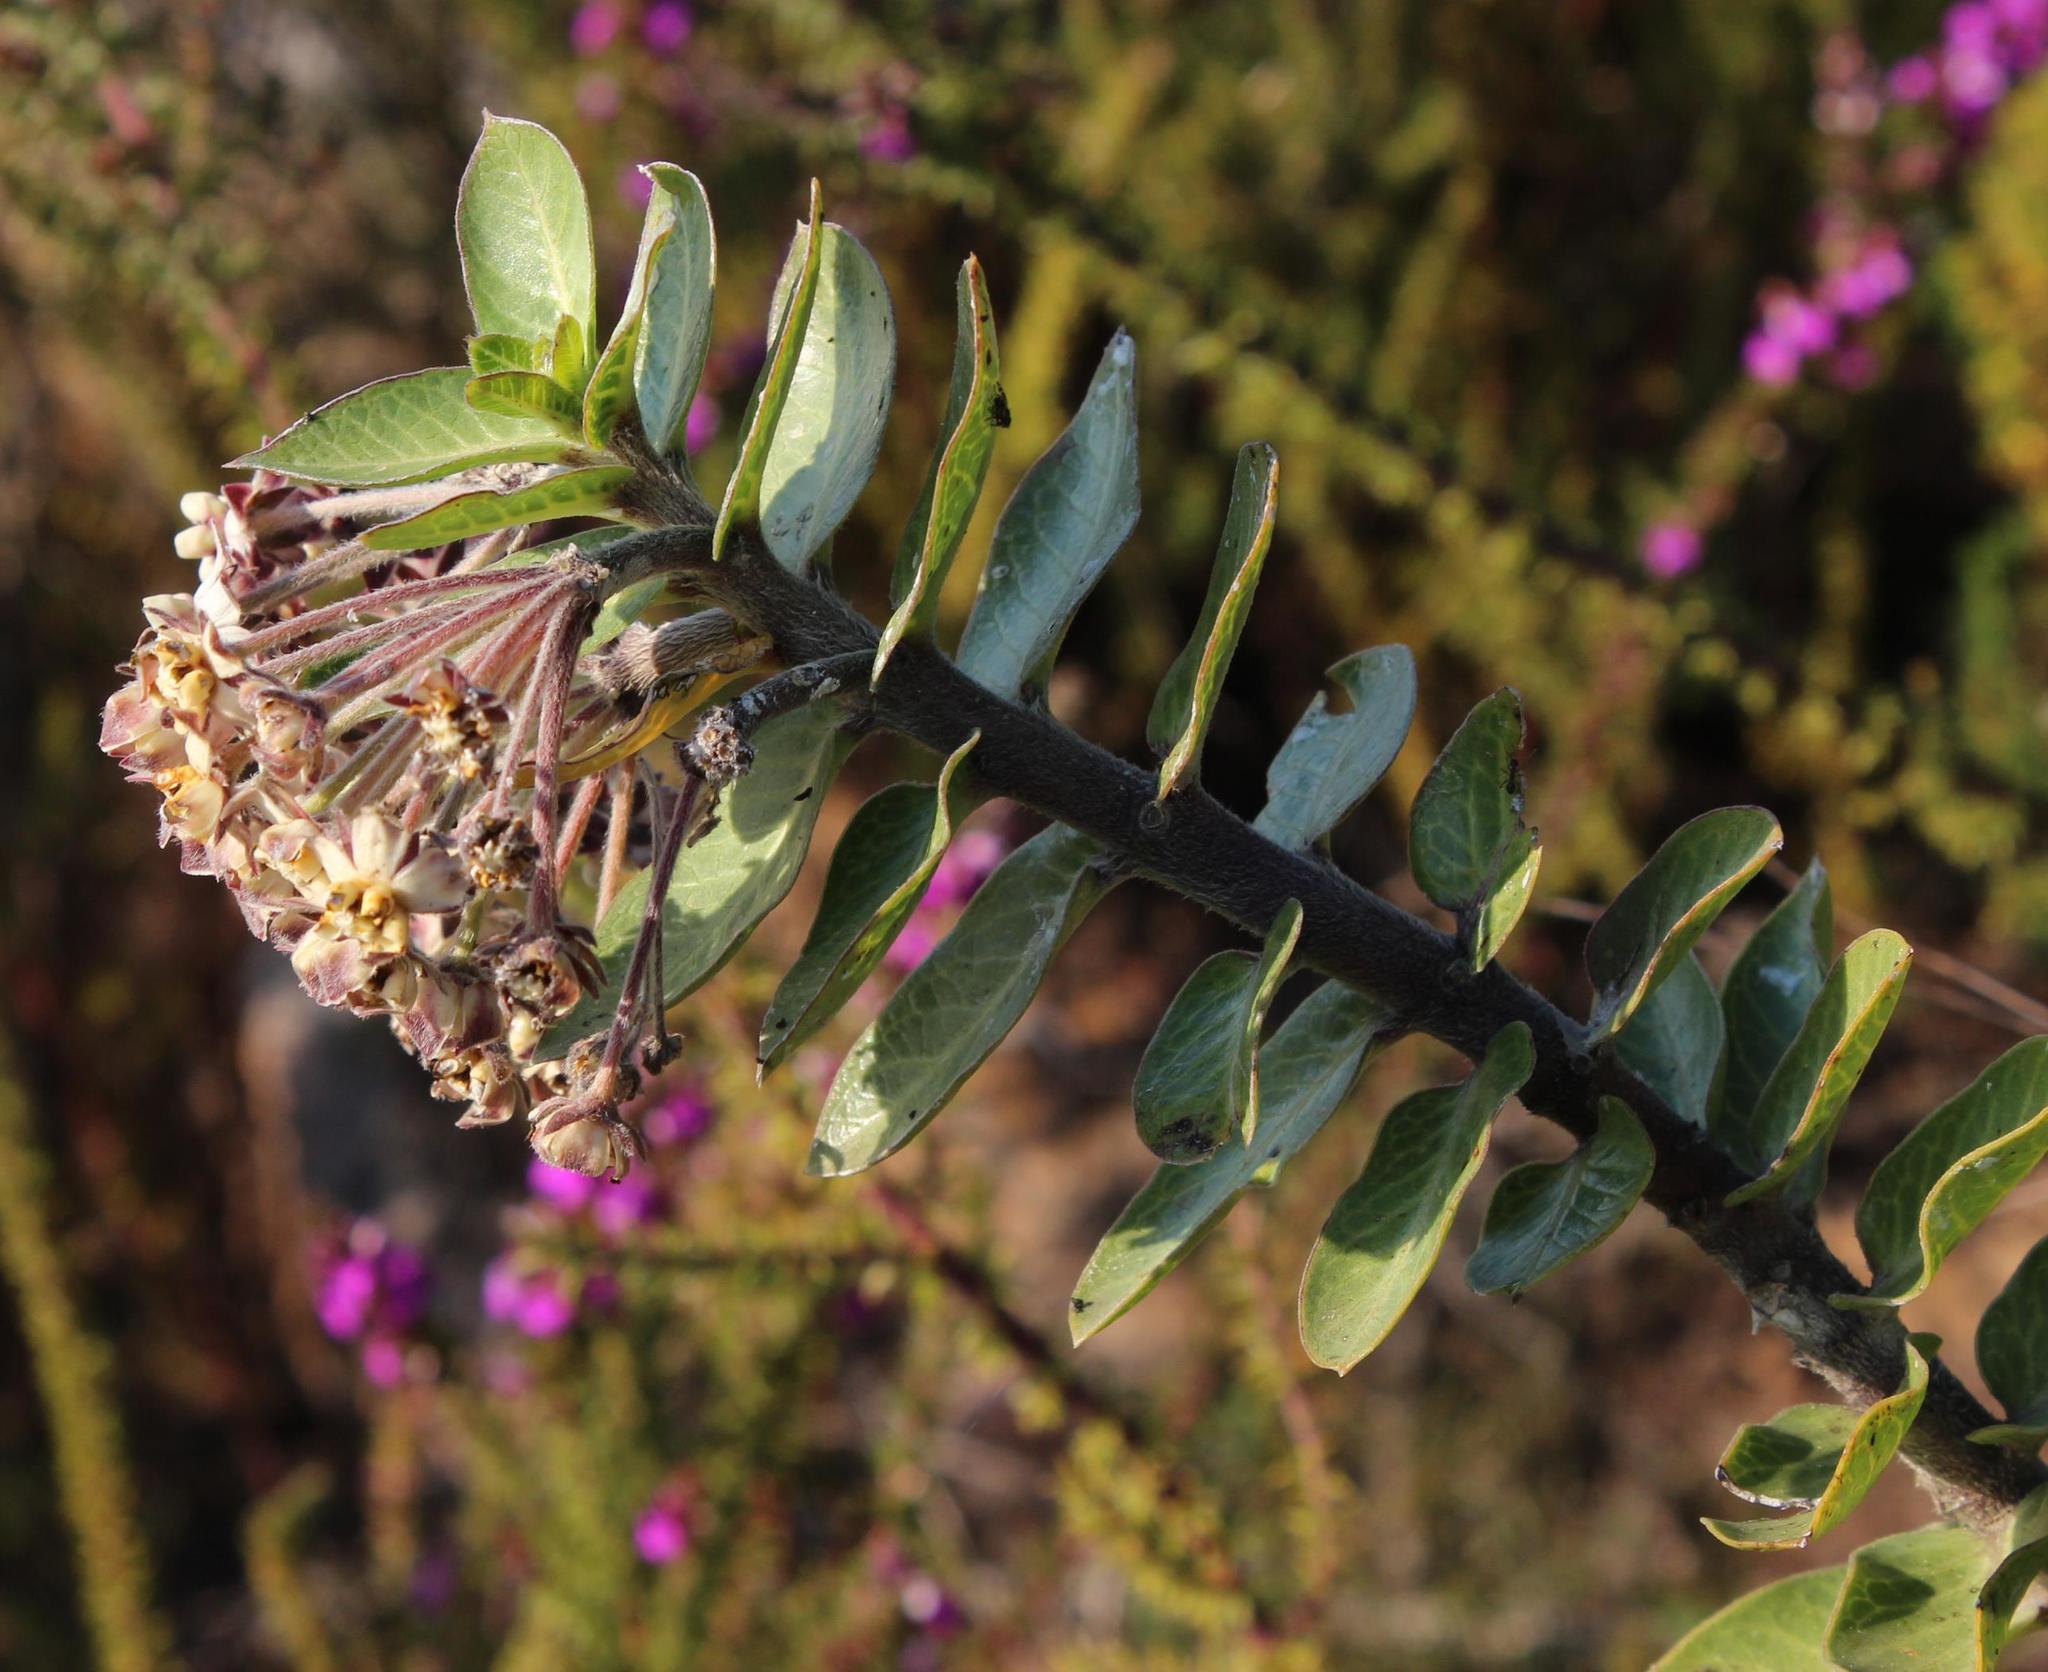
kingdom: Plantae
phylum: Tracheophyta
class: Magnoliopsida
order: Gentianales
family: Apocynaceae
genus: Gomphocarpus
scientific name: Gomphocarpus cancellatus
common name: Wild cotton
